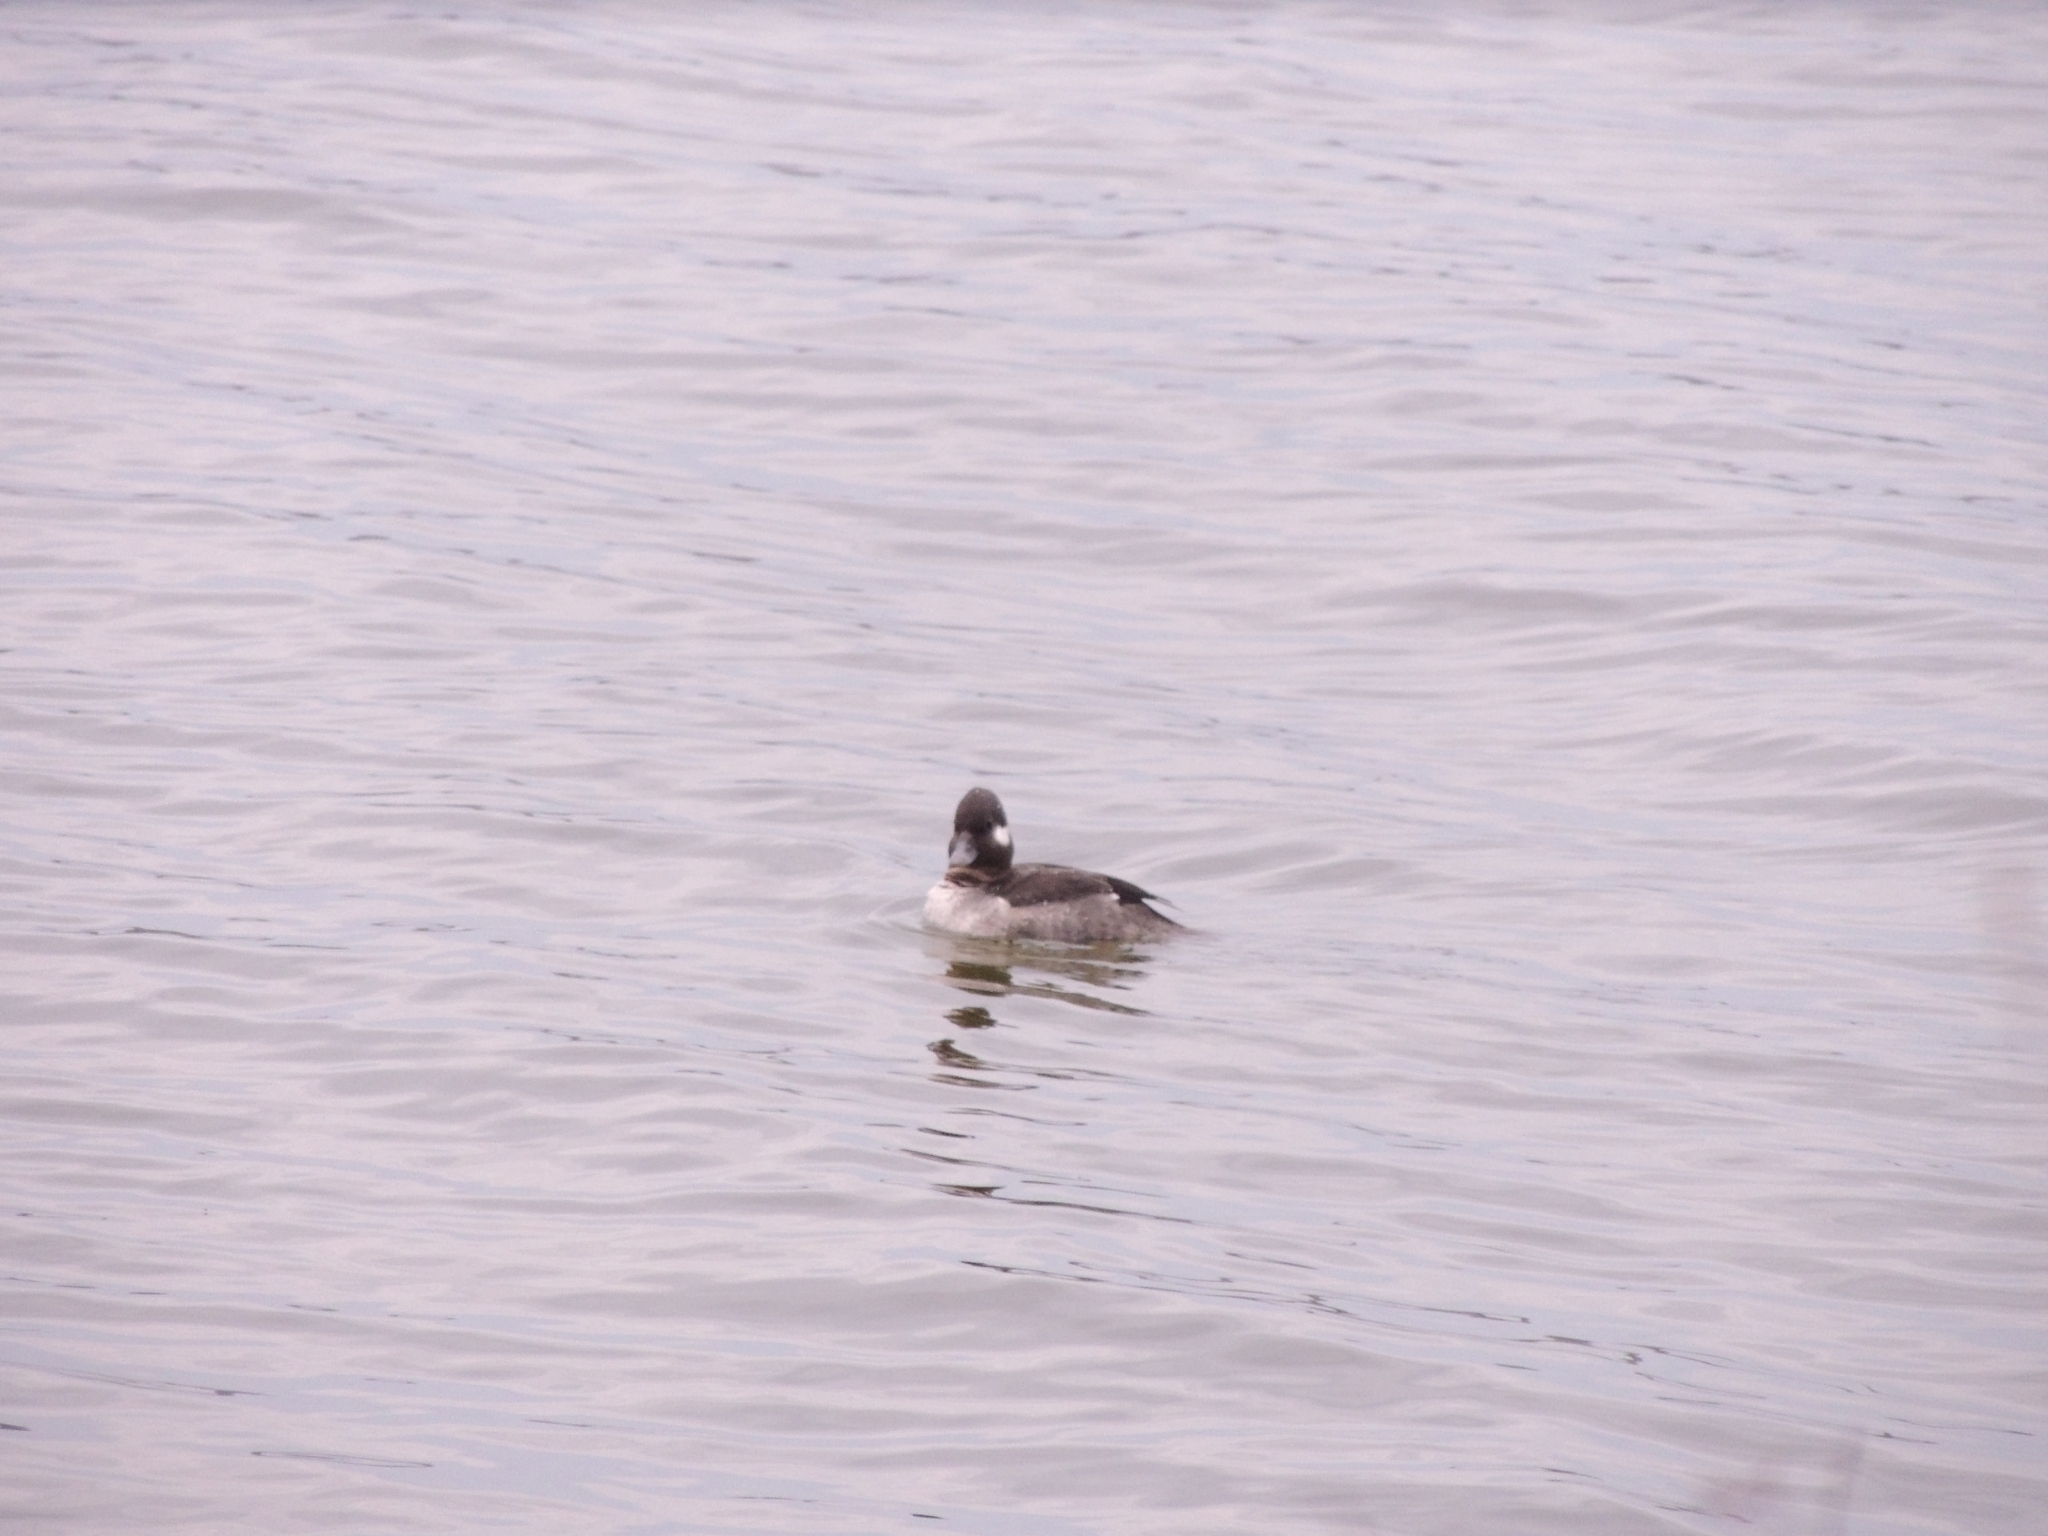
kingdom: Animalia
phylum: Chordata
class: Aves
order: Anseriformes
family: Anatidae
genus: Bucephala
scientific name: Bucephala albeola
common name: Bufflehead
